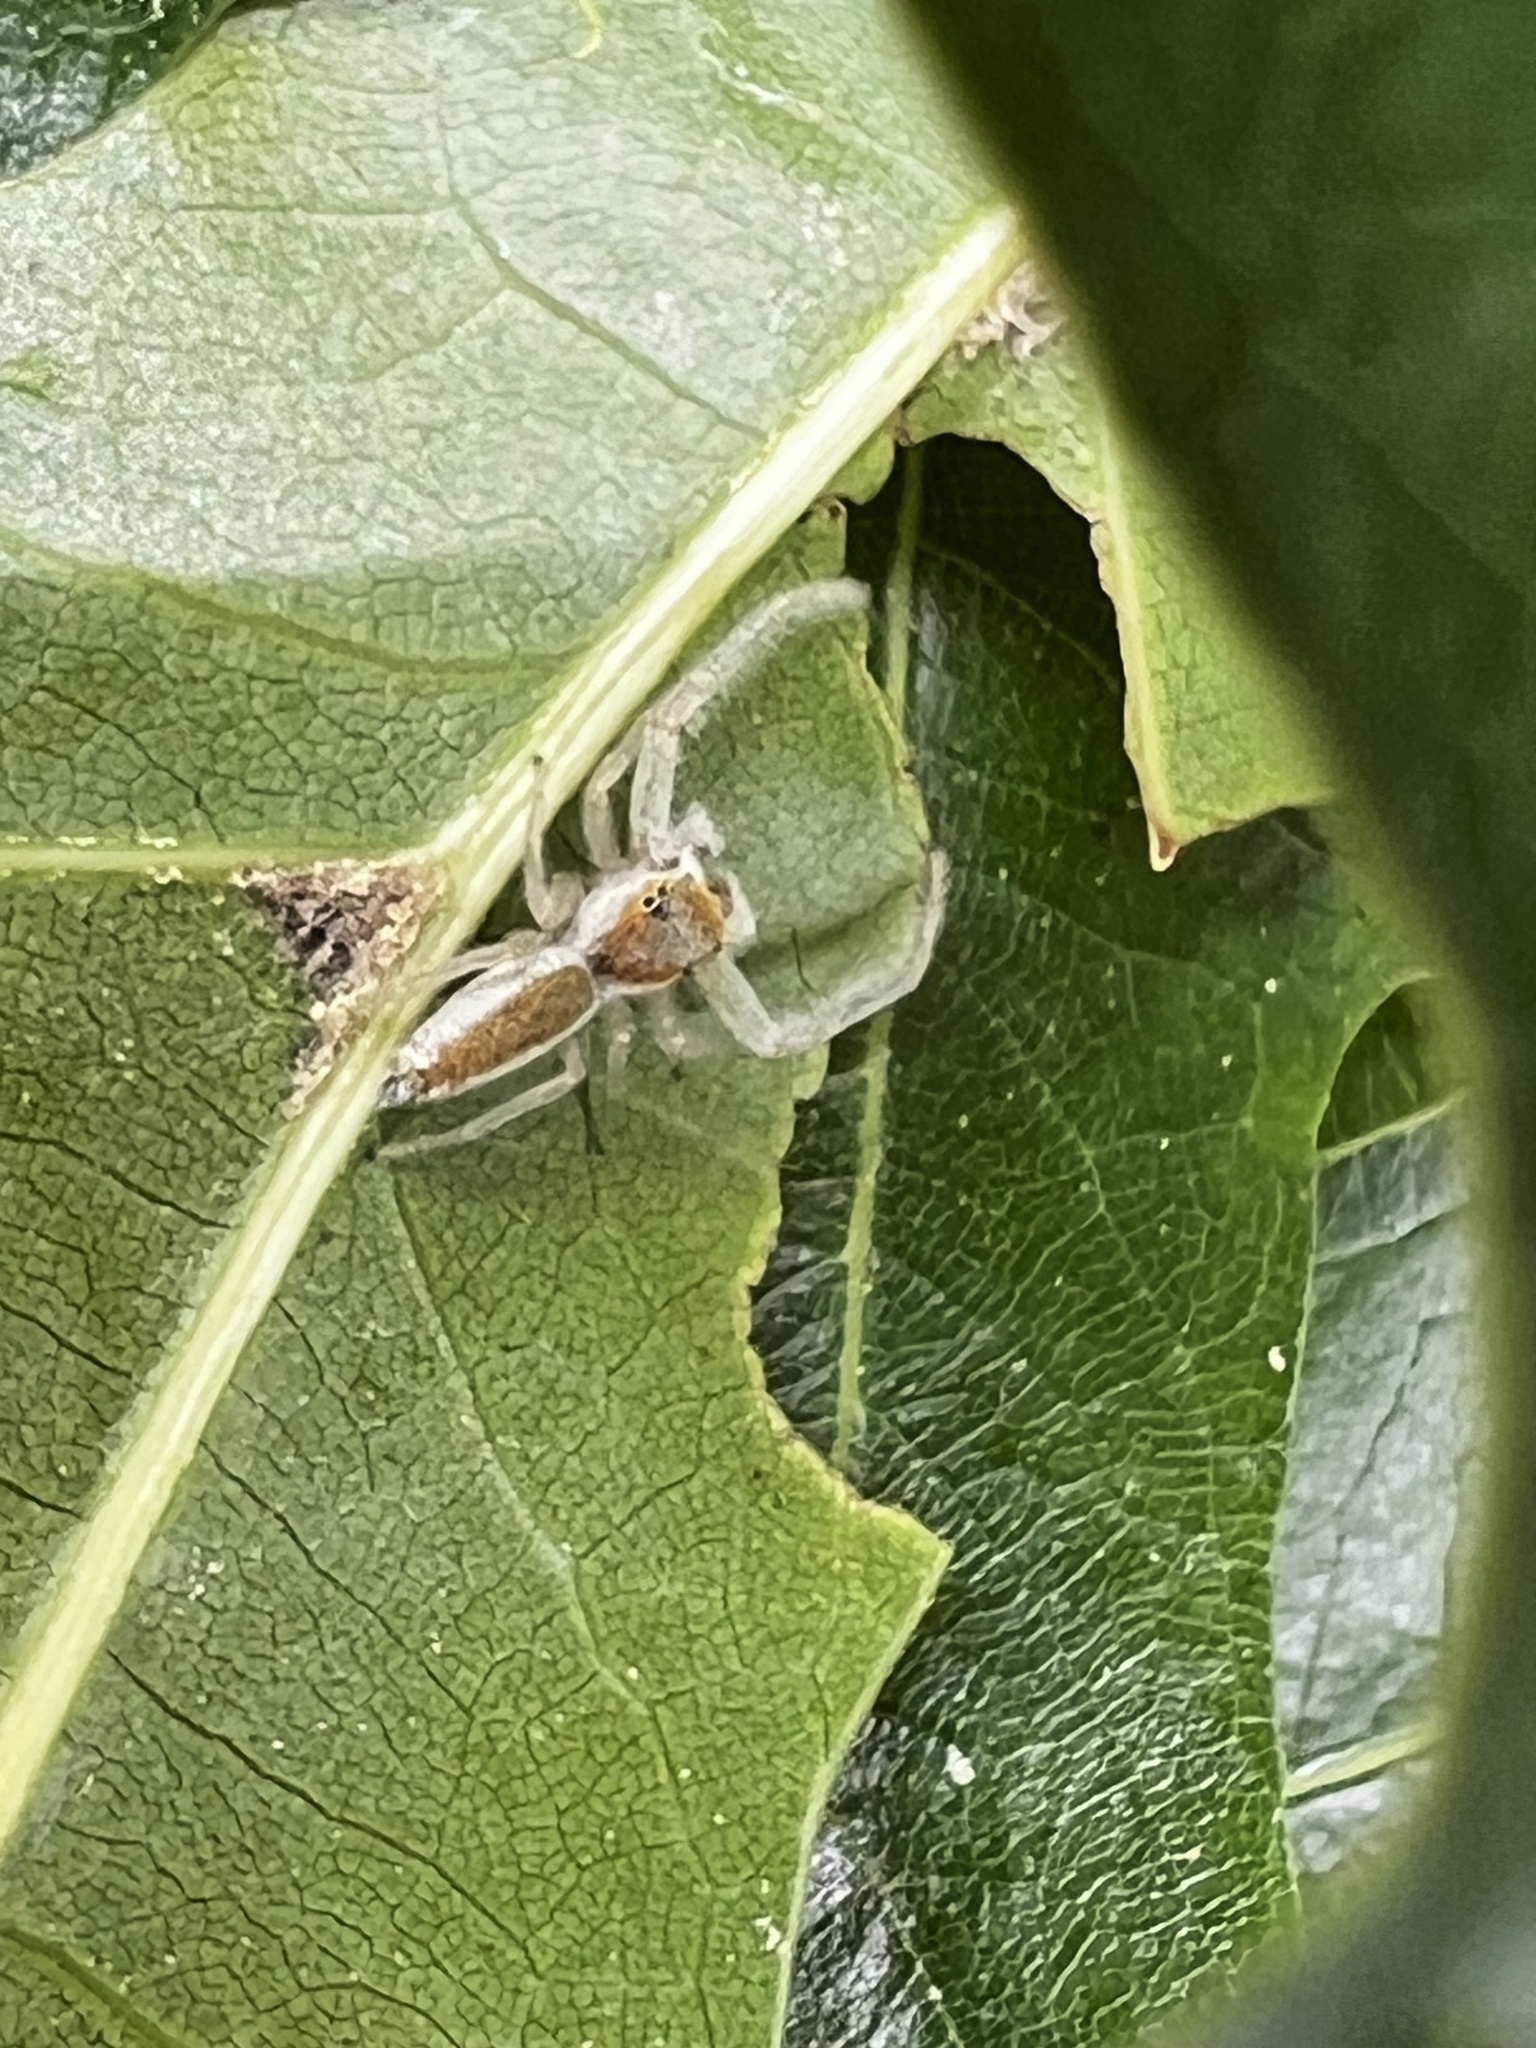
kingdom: Animalia
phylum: Arthropoda
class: Arachnida
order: Araneae
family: Salticidae
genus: Hentzia
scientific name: Hentzia mitrata
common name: White-jawed jumping spider
